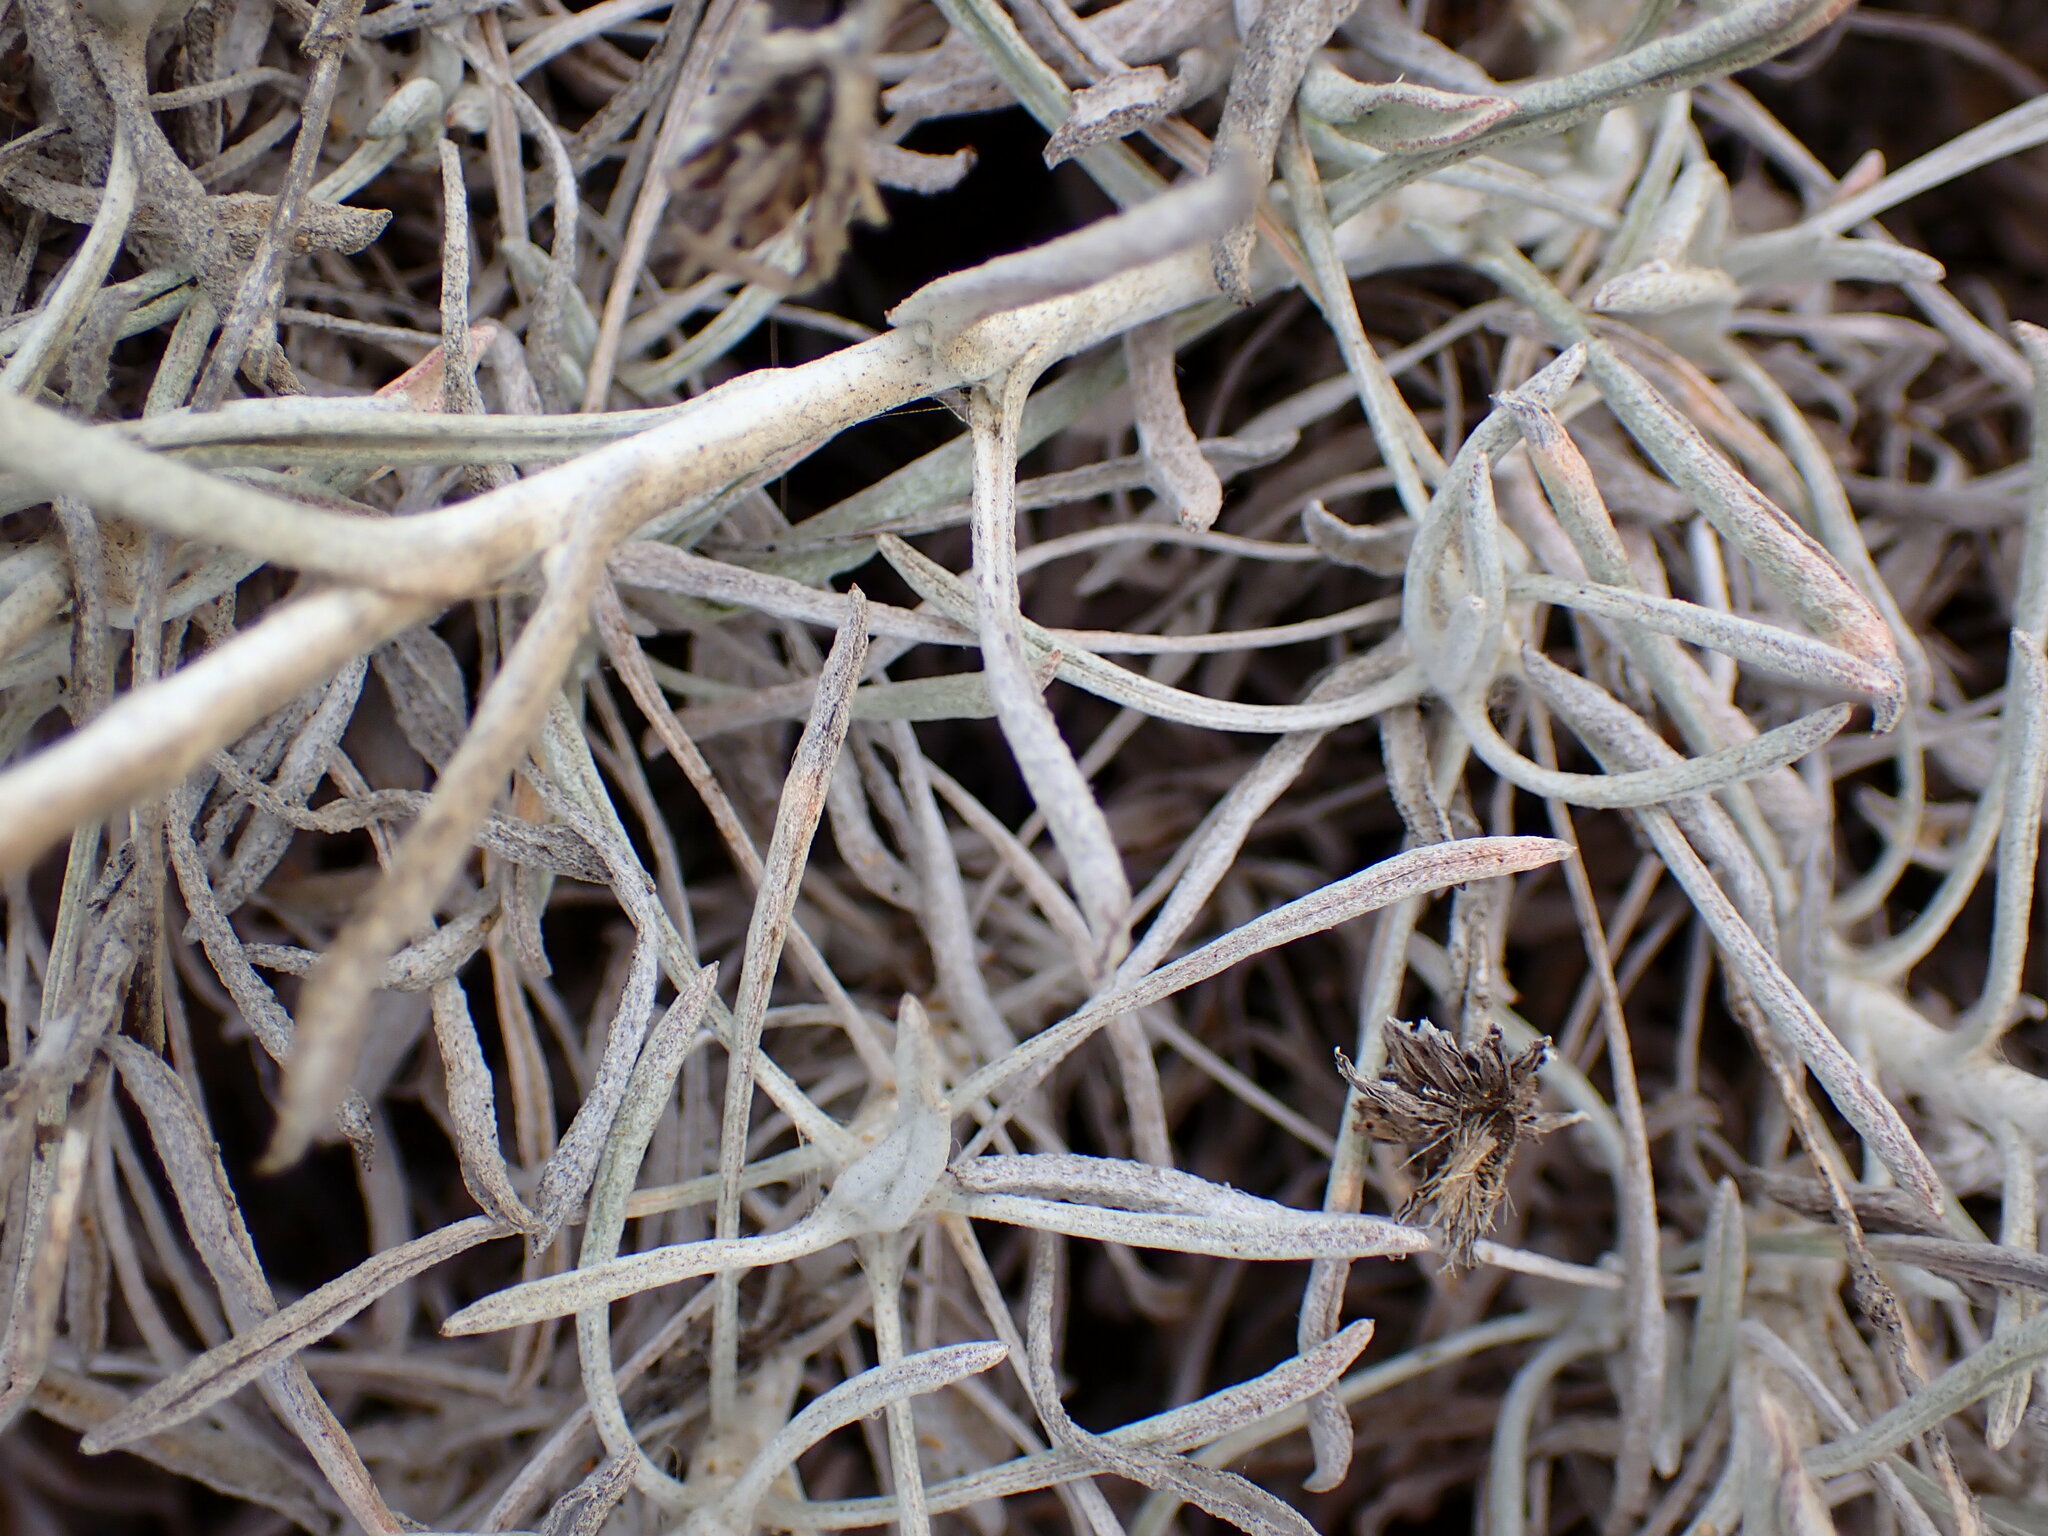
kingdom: Plantae
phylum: Tracheophyta
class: Magnoliopsida
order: Asterales
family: Asteraceae
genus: Corethrogyne
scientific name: Corethrogyne filaginifolia
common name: Sand-aster
